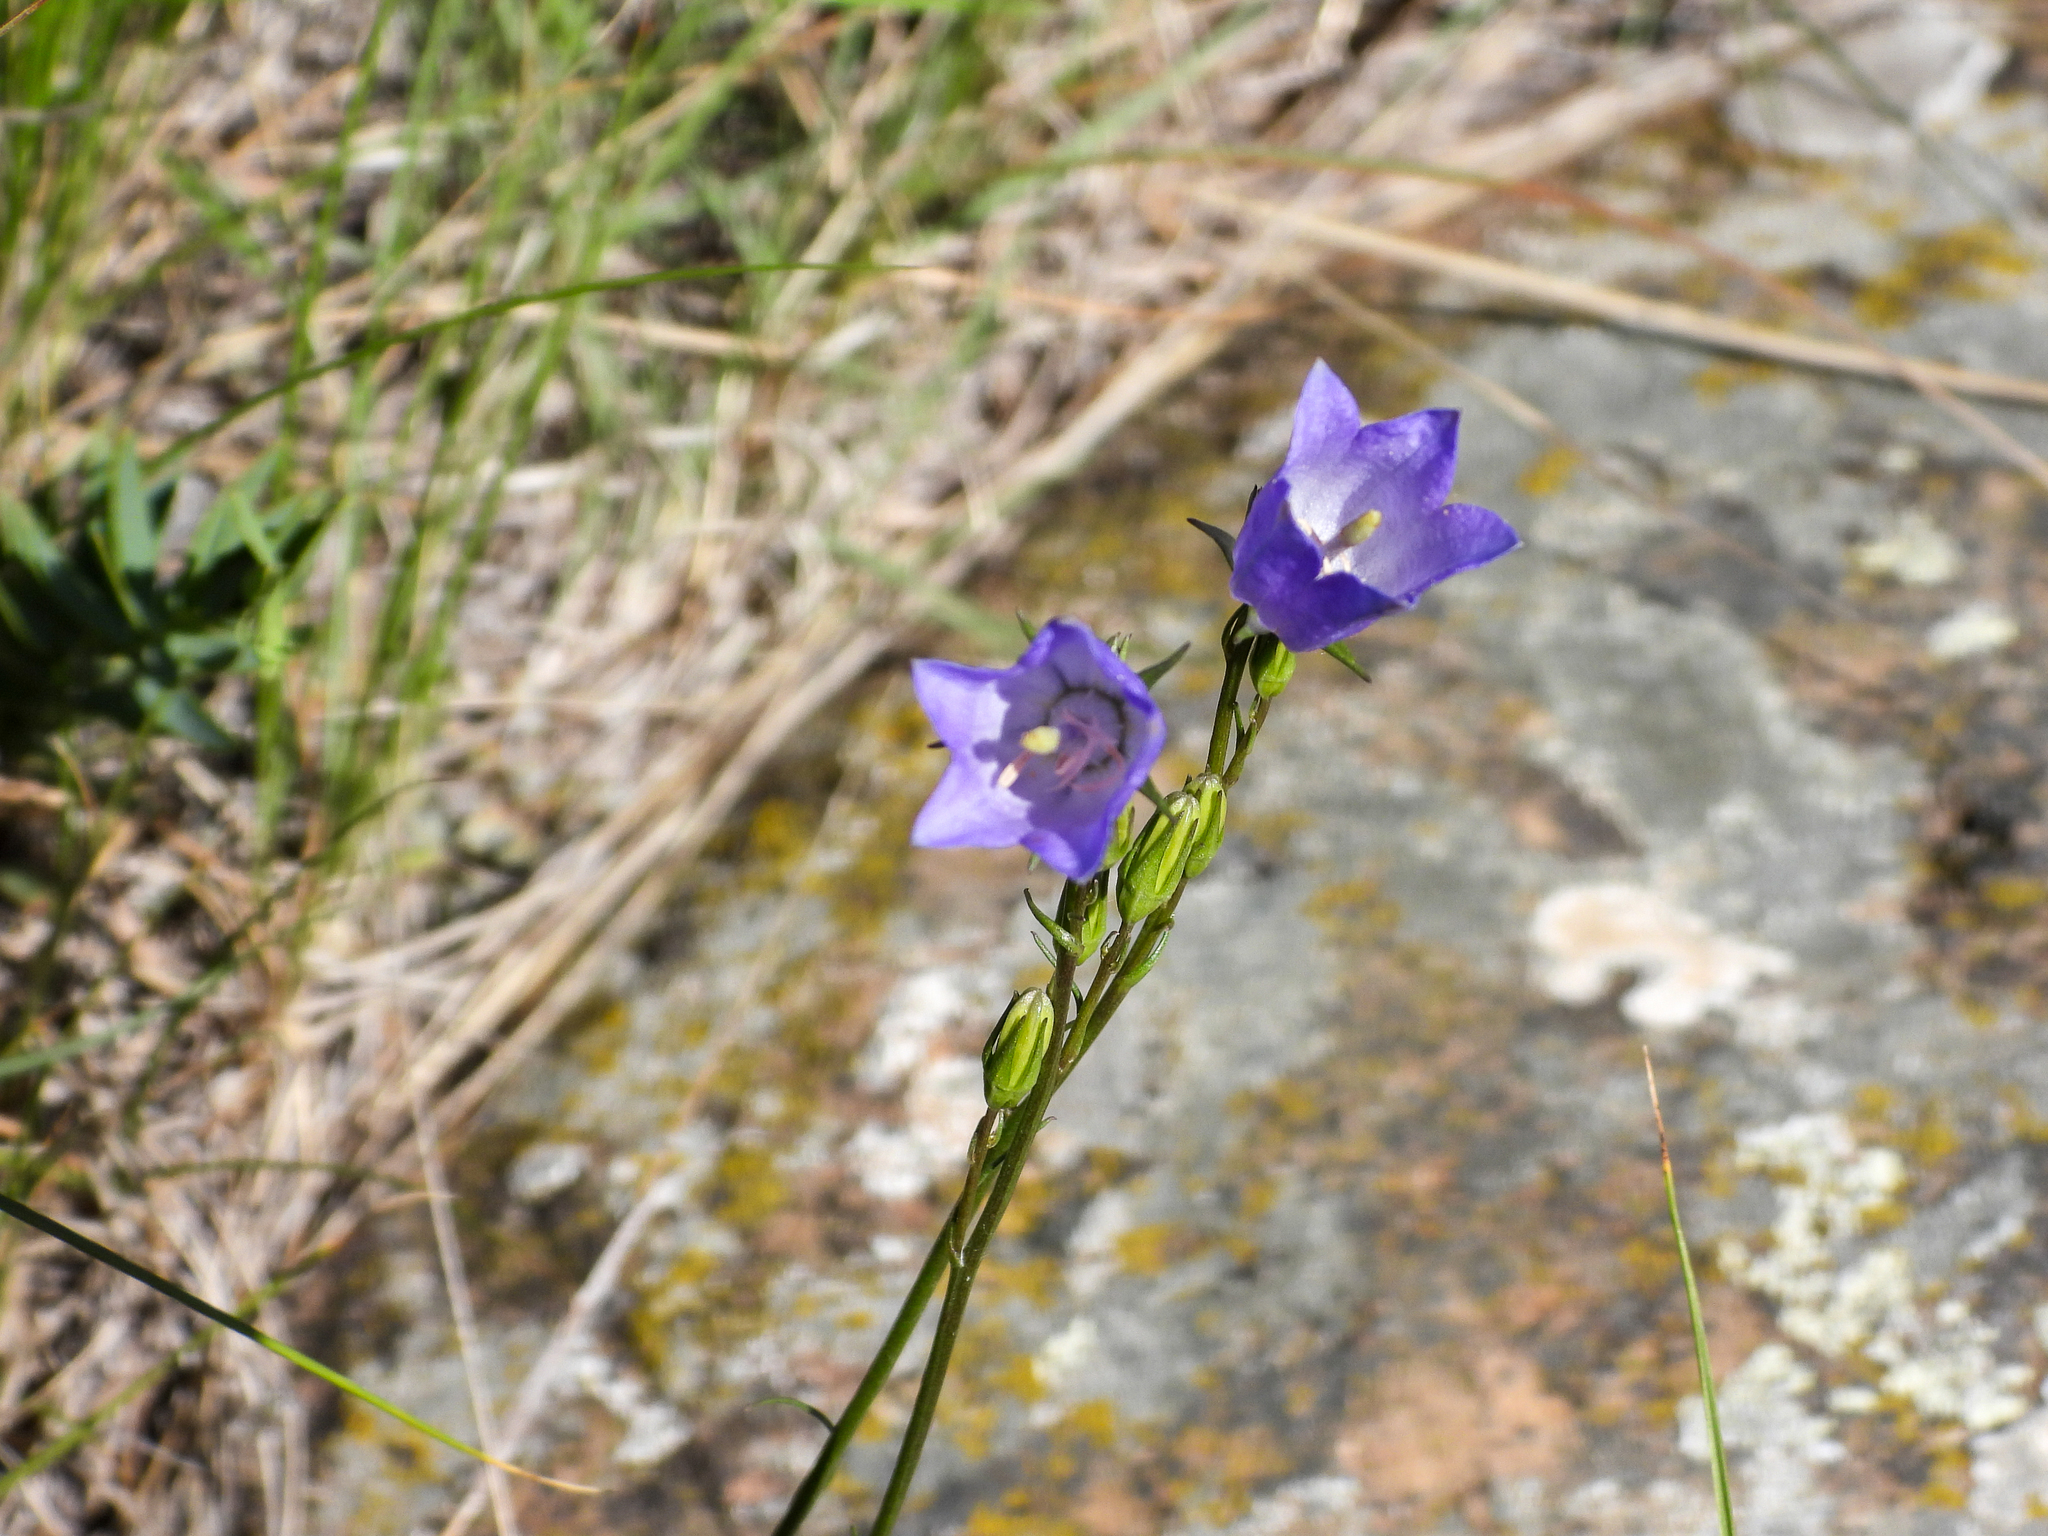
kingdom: Plantae
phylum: Tracheophyta
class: Magnoliopsida
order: Asterales
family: Campanulaceae
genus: Campanula
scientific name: Campanula petiolata
